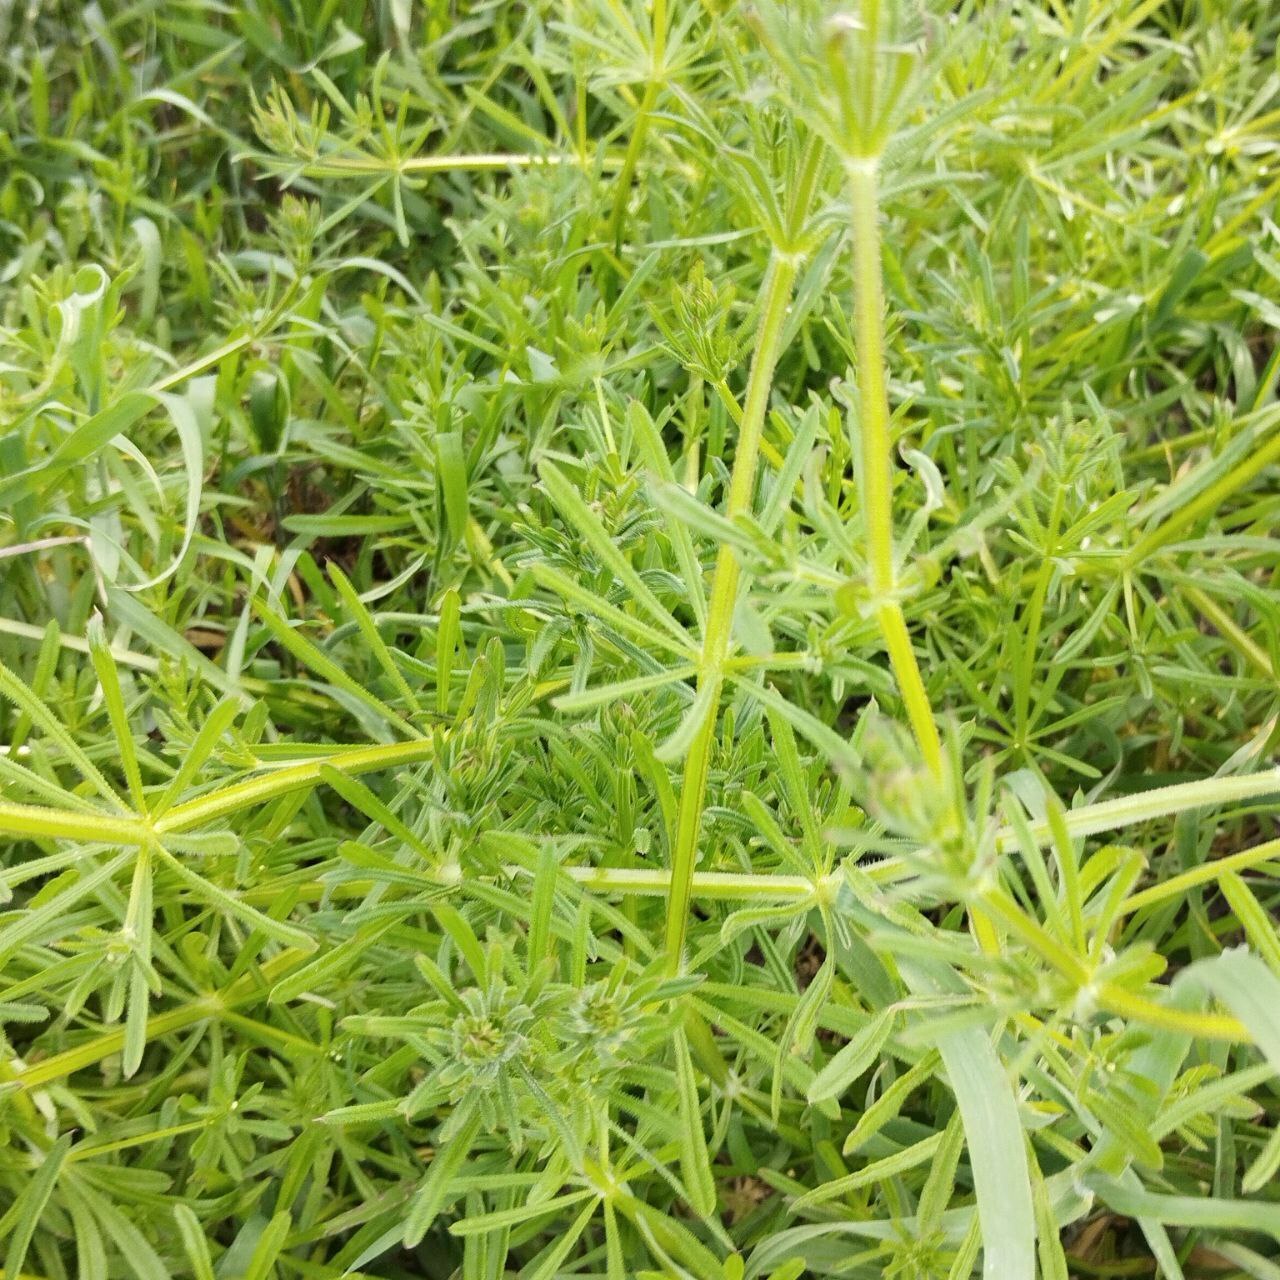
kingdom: Plantae
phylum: Tracheophyta
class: Magnoliopsida
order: Gentianales
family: Rubiaceae
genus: Galium
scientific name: Galium aparine
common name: Cleavers
